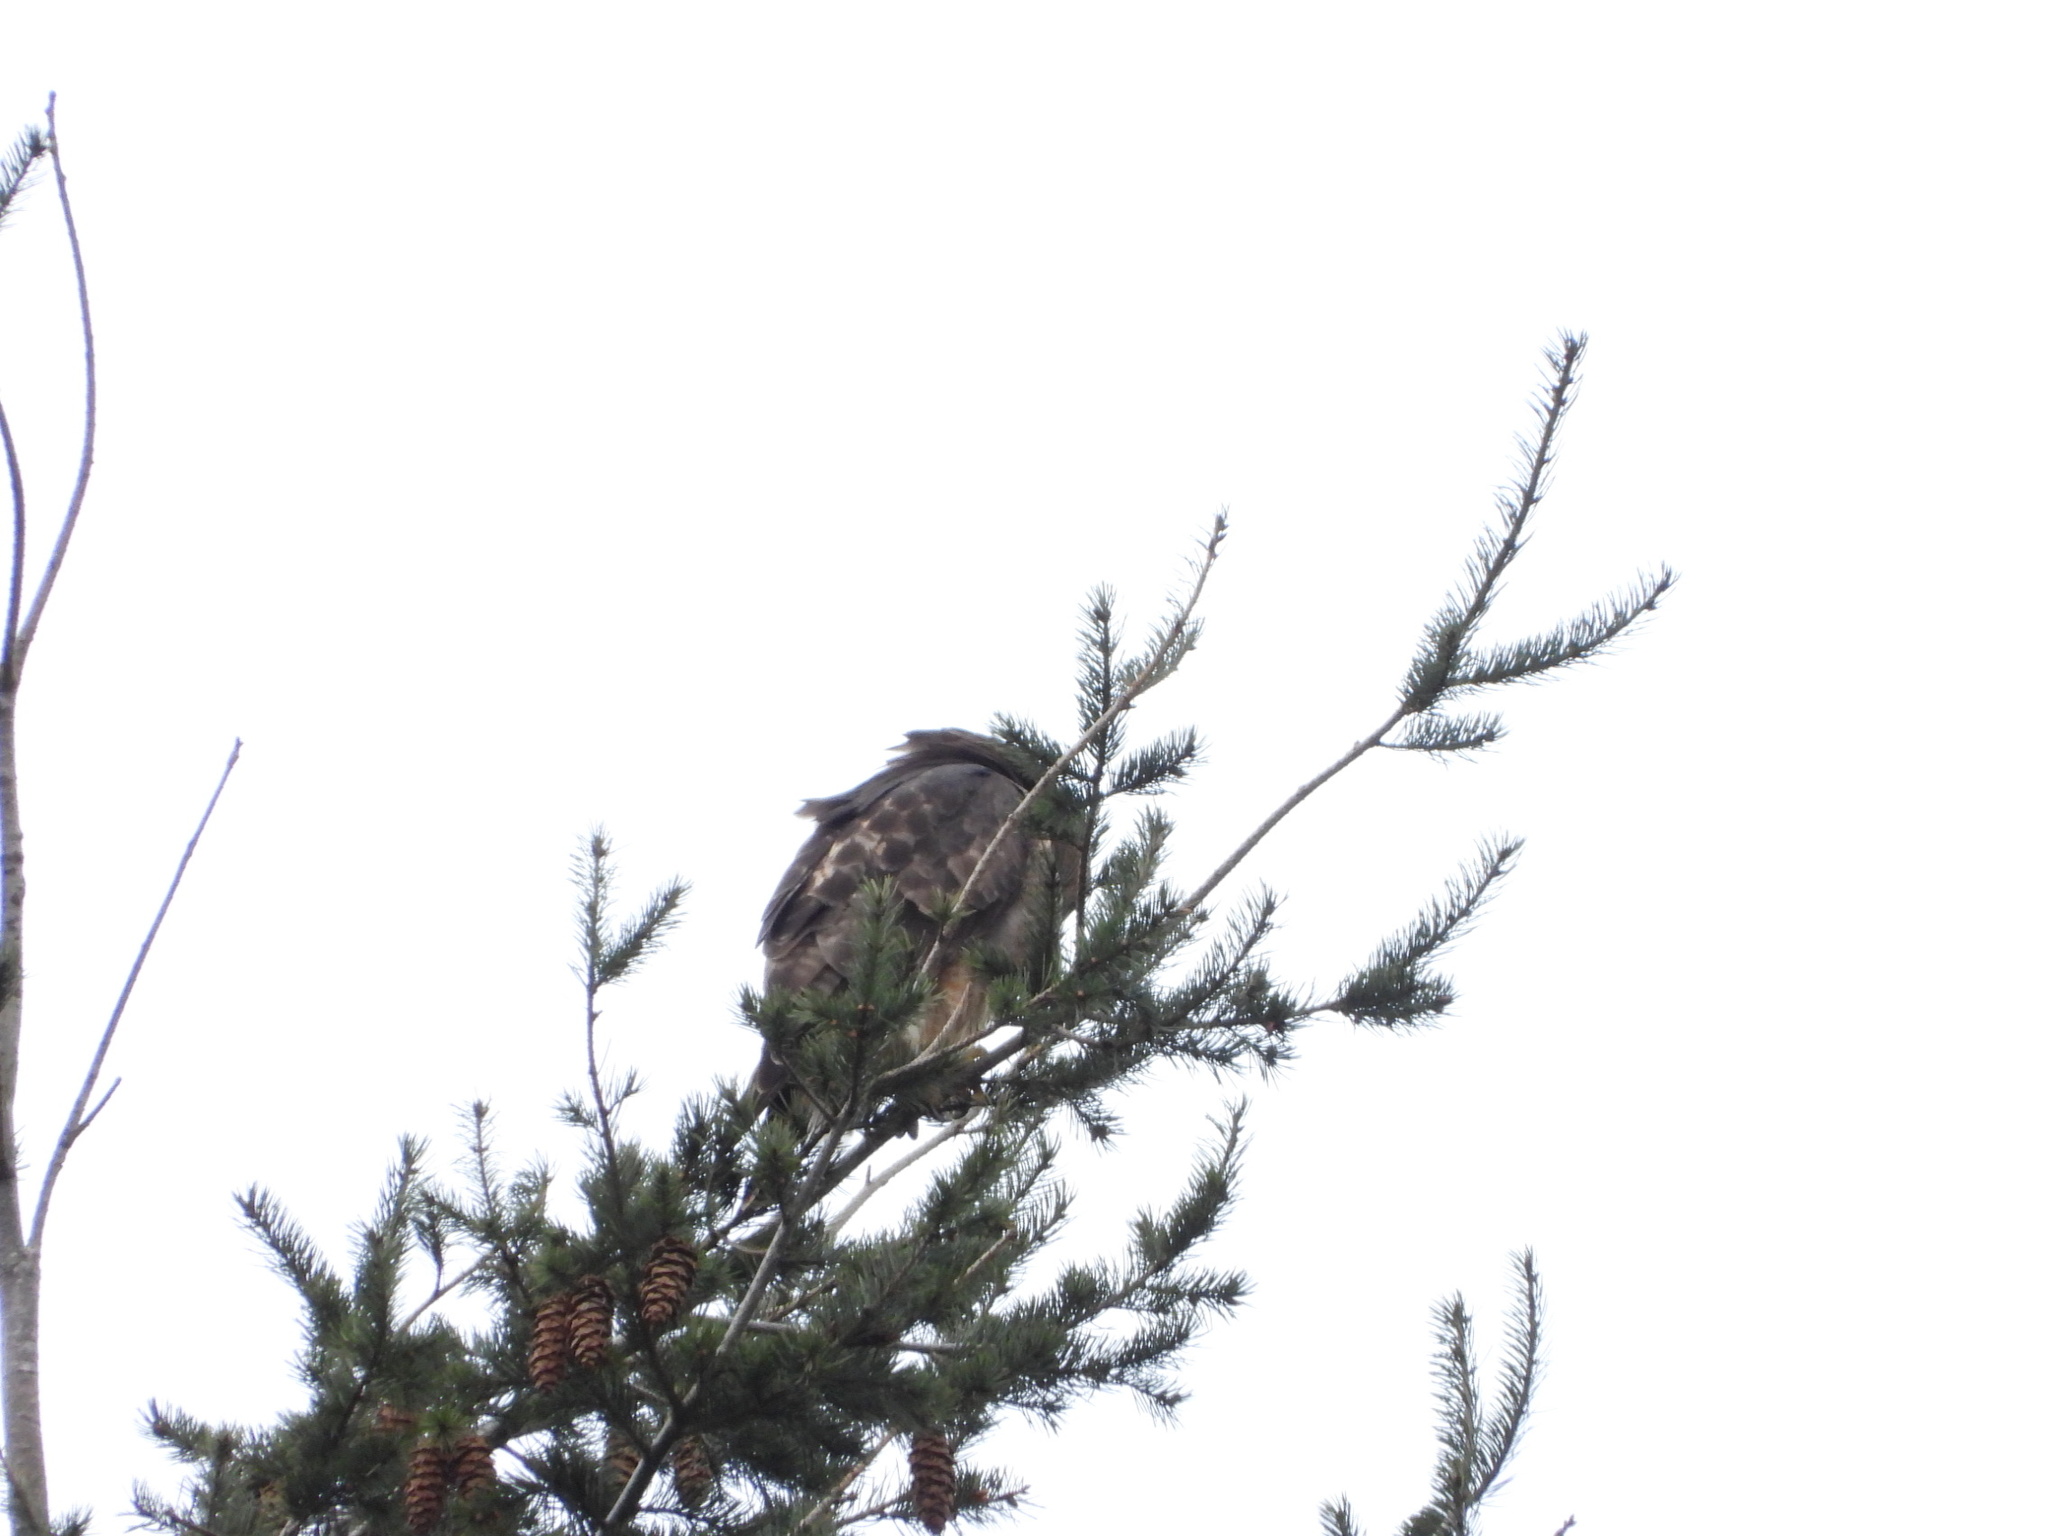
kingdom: Animalia
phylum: Chordata
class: Aves
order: Accipitriformes
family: Accipitridae
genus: Buteo
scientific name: Buteo jamaicensis
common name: Red-tailed hawk
